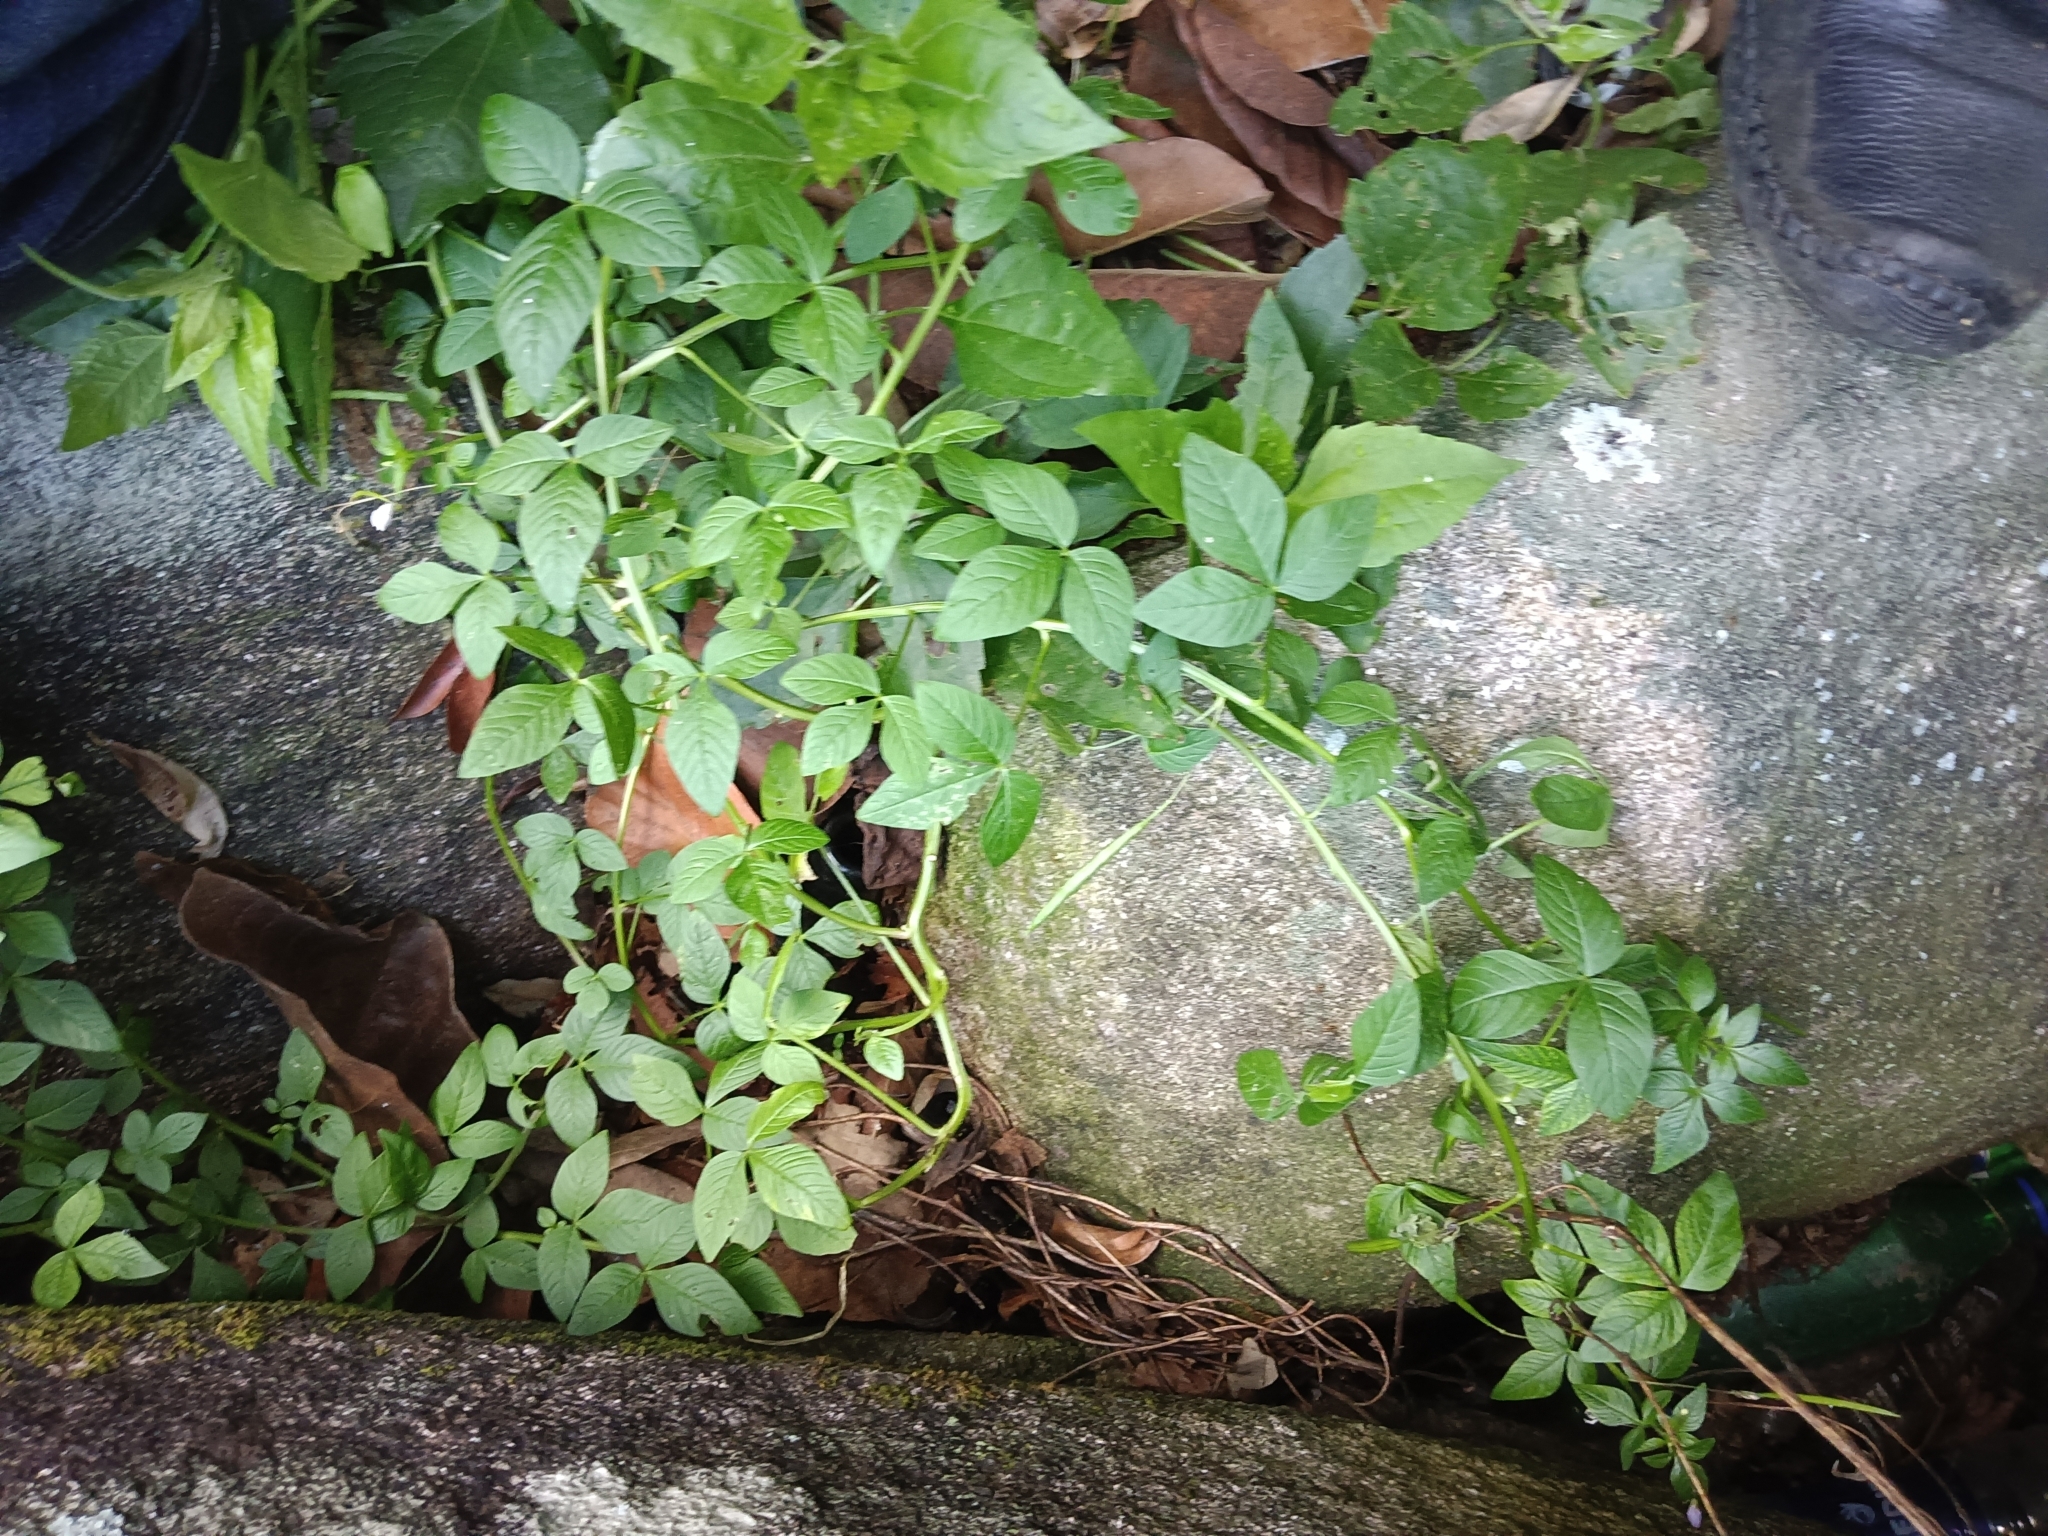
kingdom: Plantae
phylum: Tracheophyta
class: Magnoliopsida
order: Brassicales
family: Cleomaceae
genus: Sieruela
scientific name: Sieruela rutidosperma
